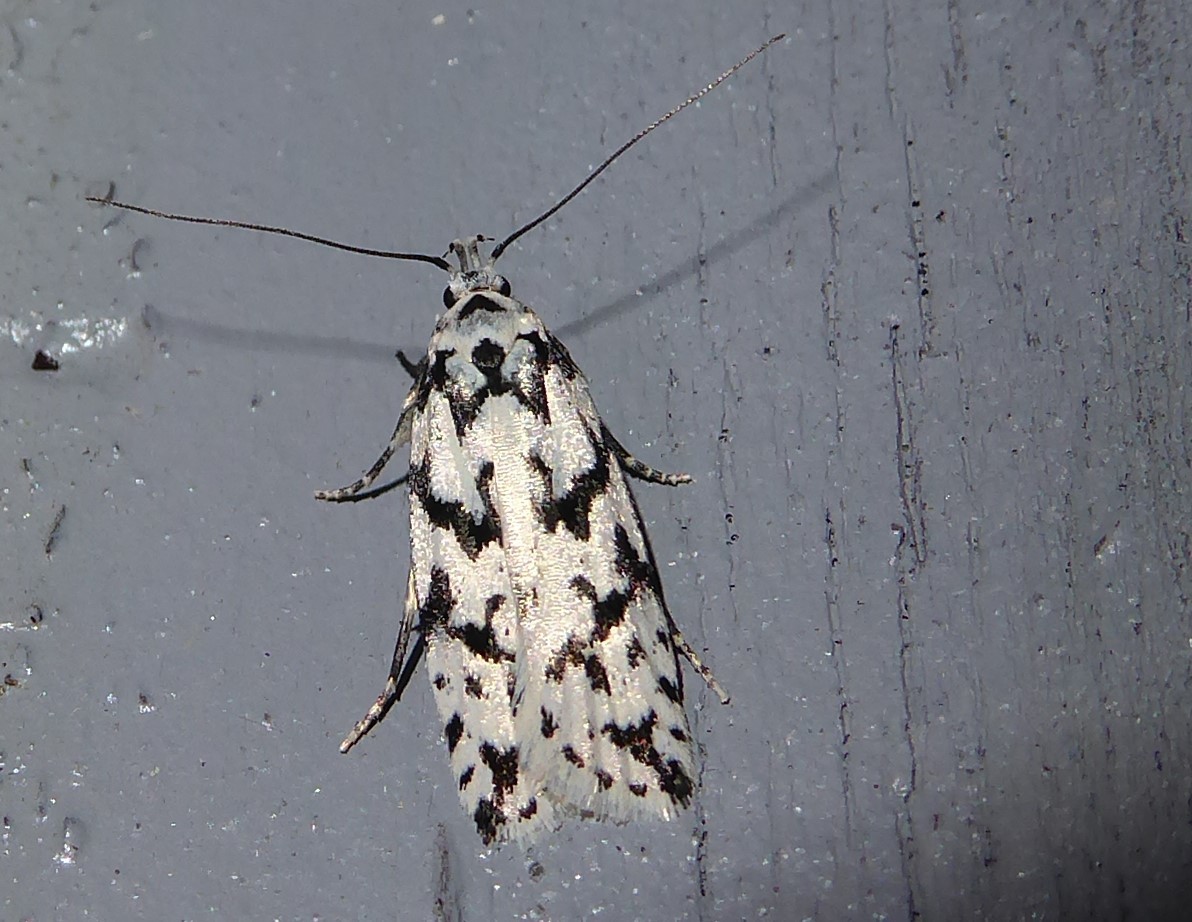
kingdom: Animalia
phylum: Arthropoda
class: Insecta
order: Lepidoptera
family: Oecophoridae
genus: Izatha
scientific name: Izatha katadiktya
